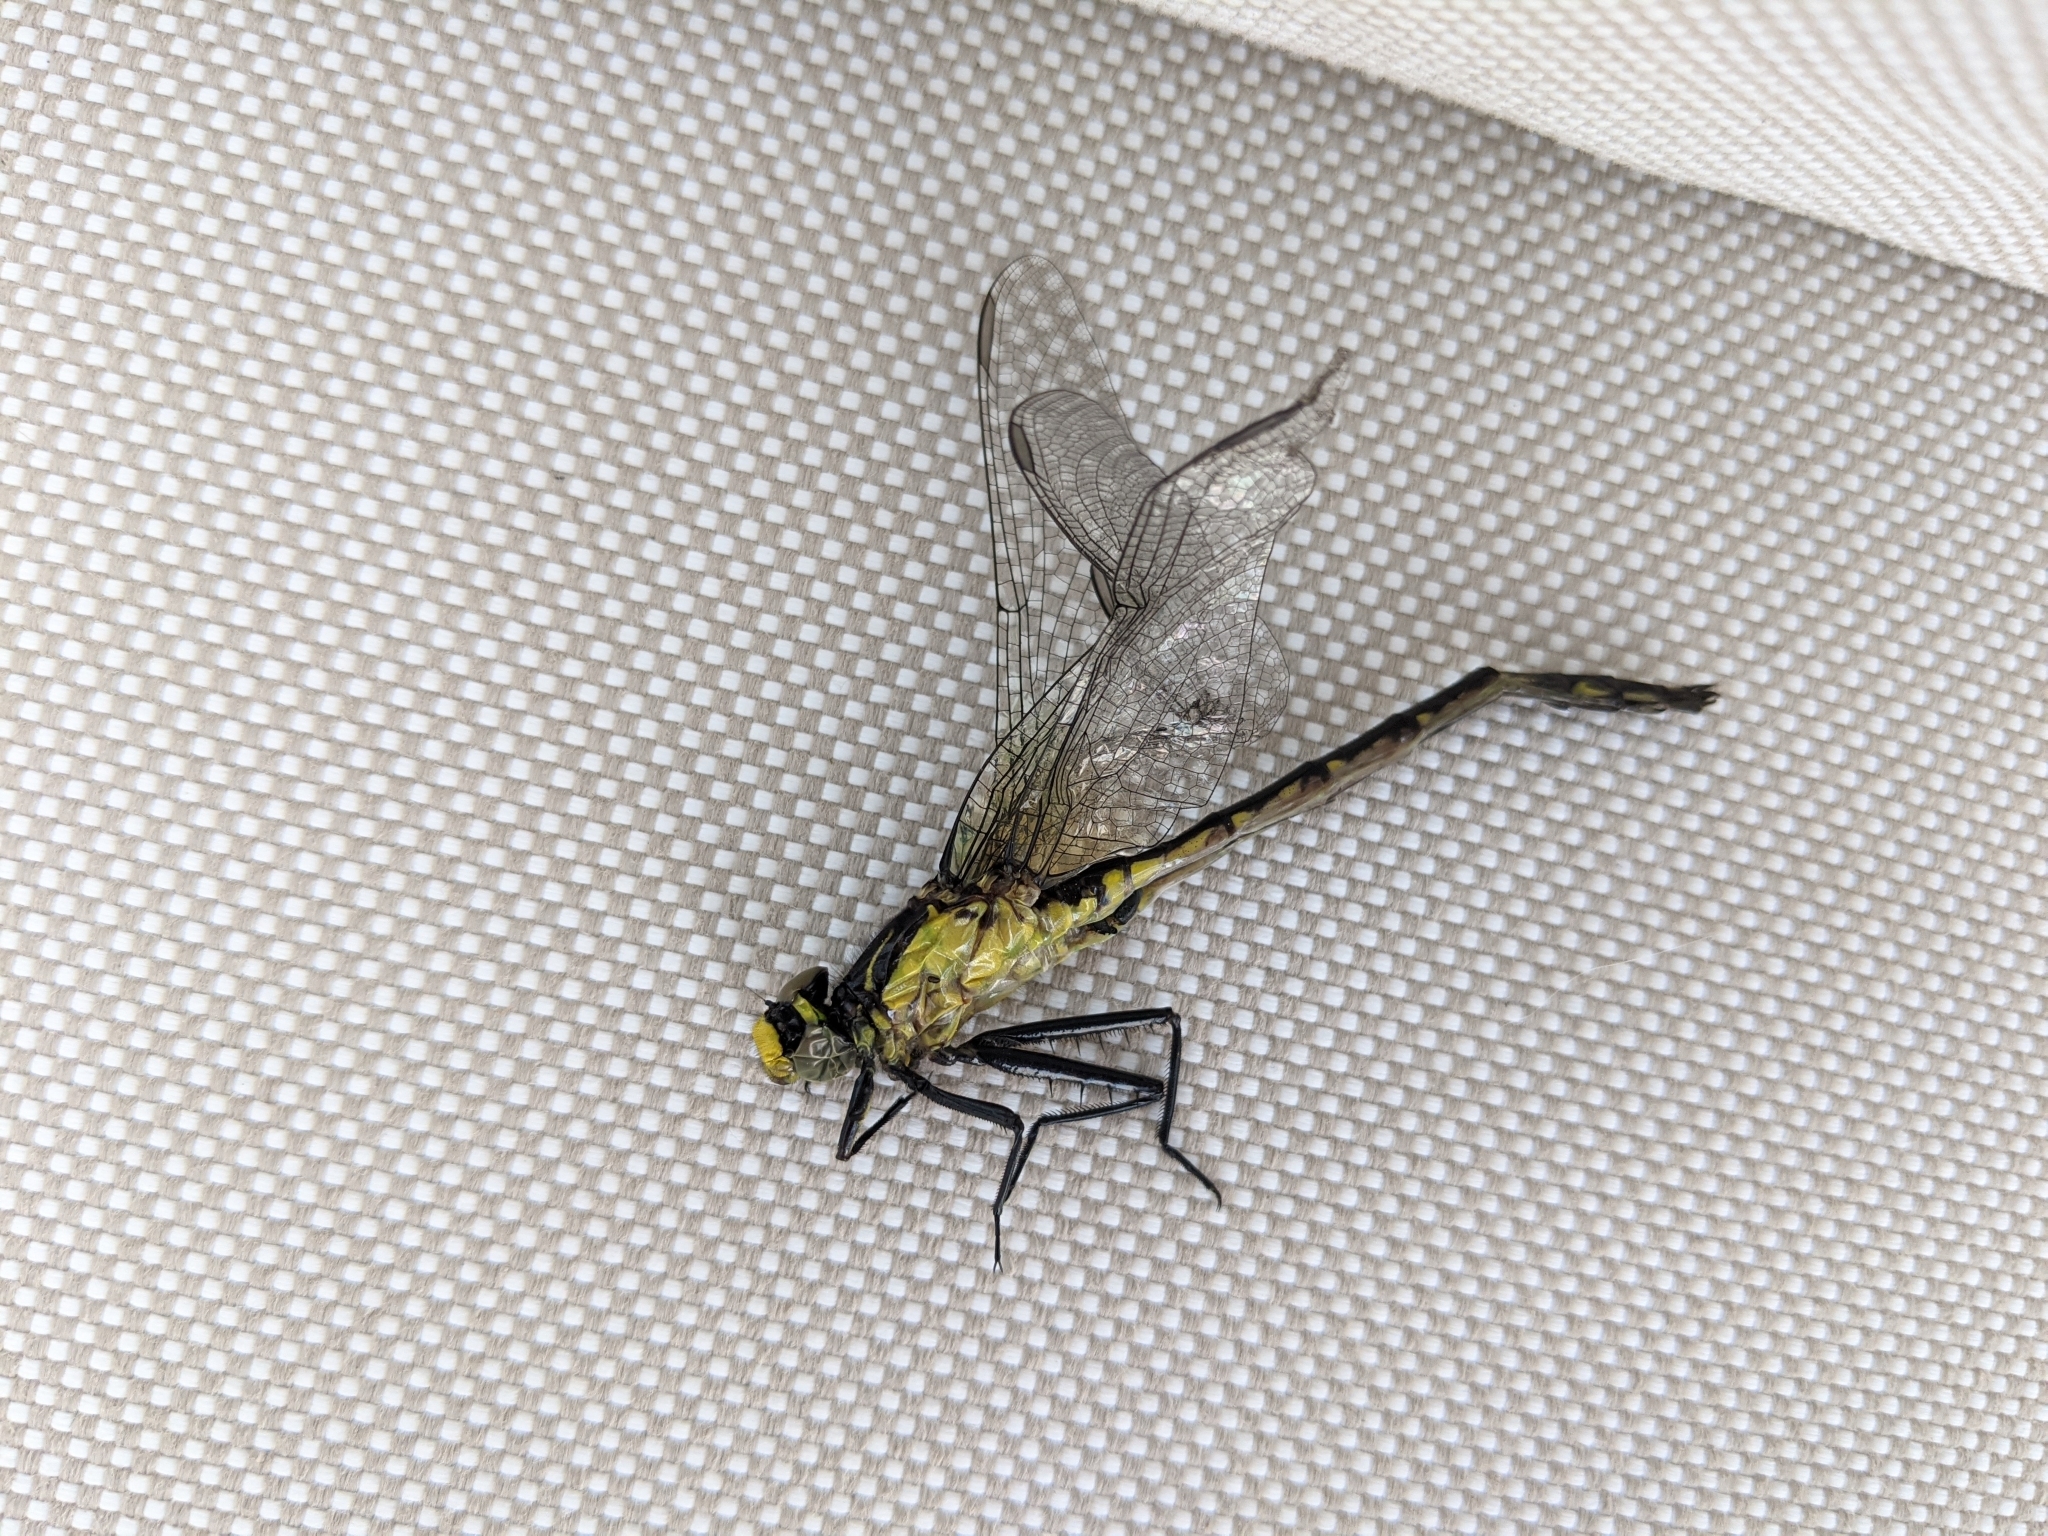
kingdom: Animalia
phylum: Arthropoda
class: Insecta
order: Odonata
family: Gomphidae
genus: Dromogomphus
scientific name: Dromogomphus spinosus
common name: Black-shouldered spinyleg
